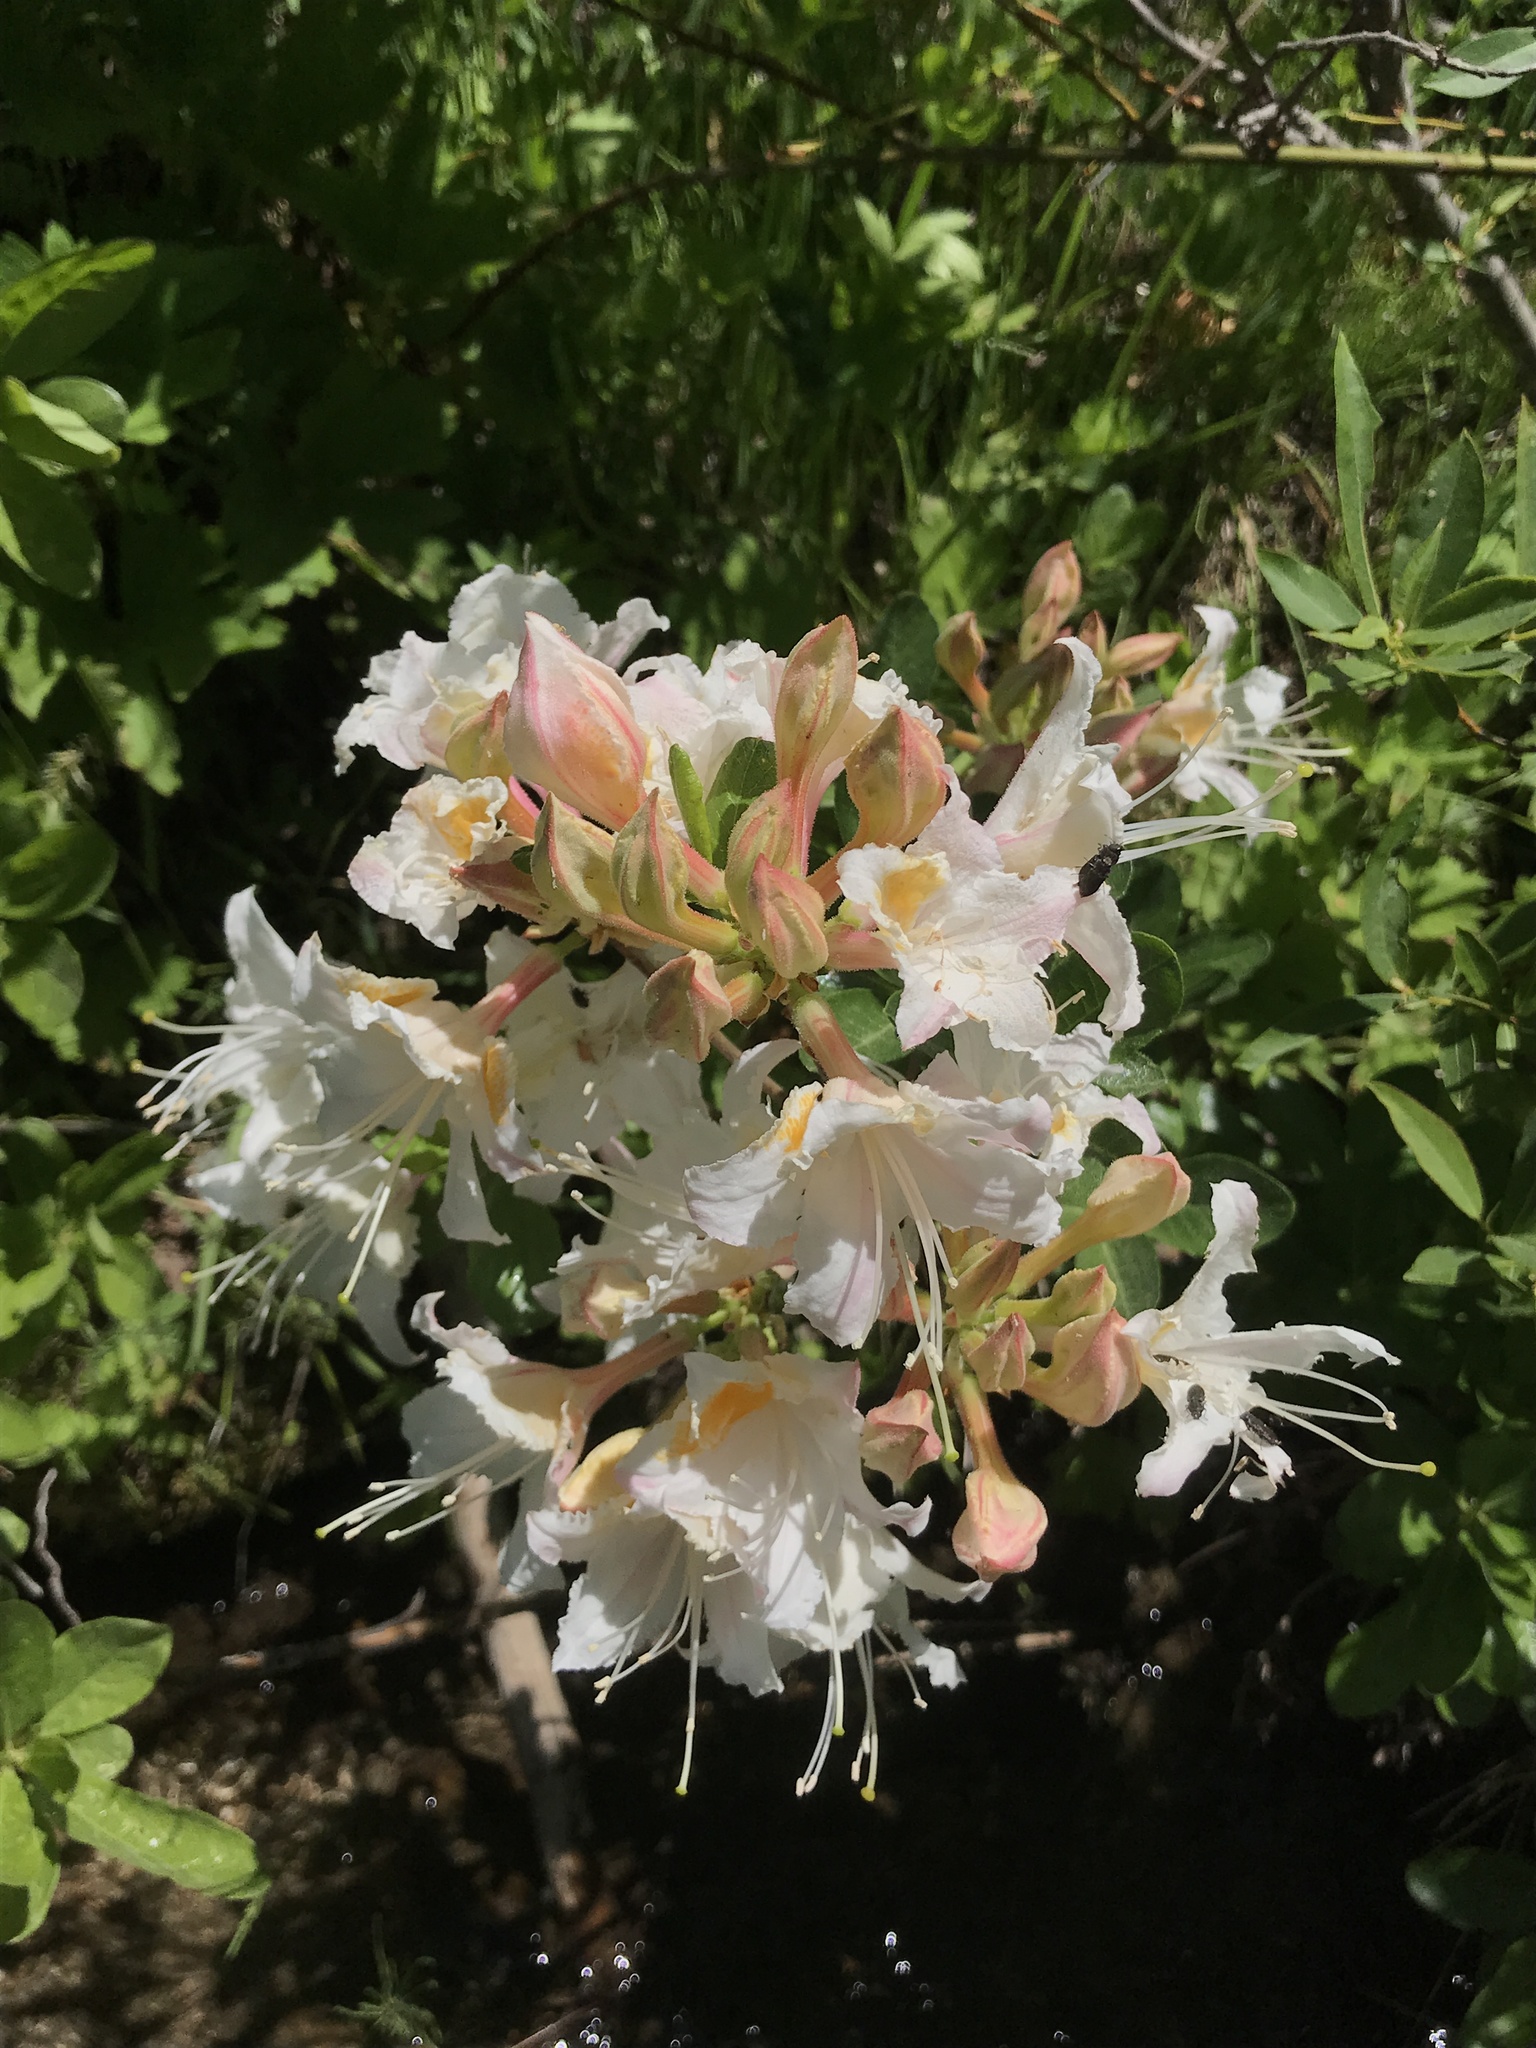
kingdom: Plantae
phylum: Tracheophyta
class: Magnoliopsida
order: Ericales
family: Ericaceae
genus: Rhododendron
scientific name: Rhododendron occidentale
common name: Western azalea
